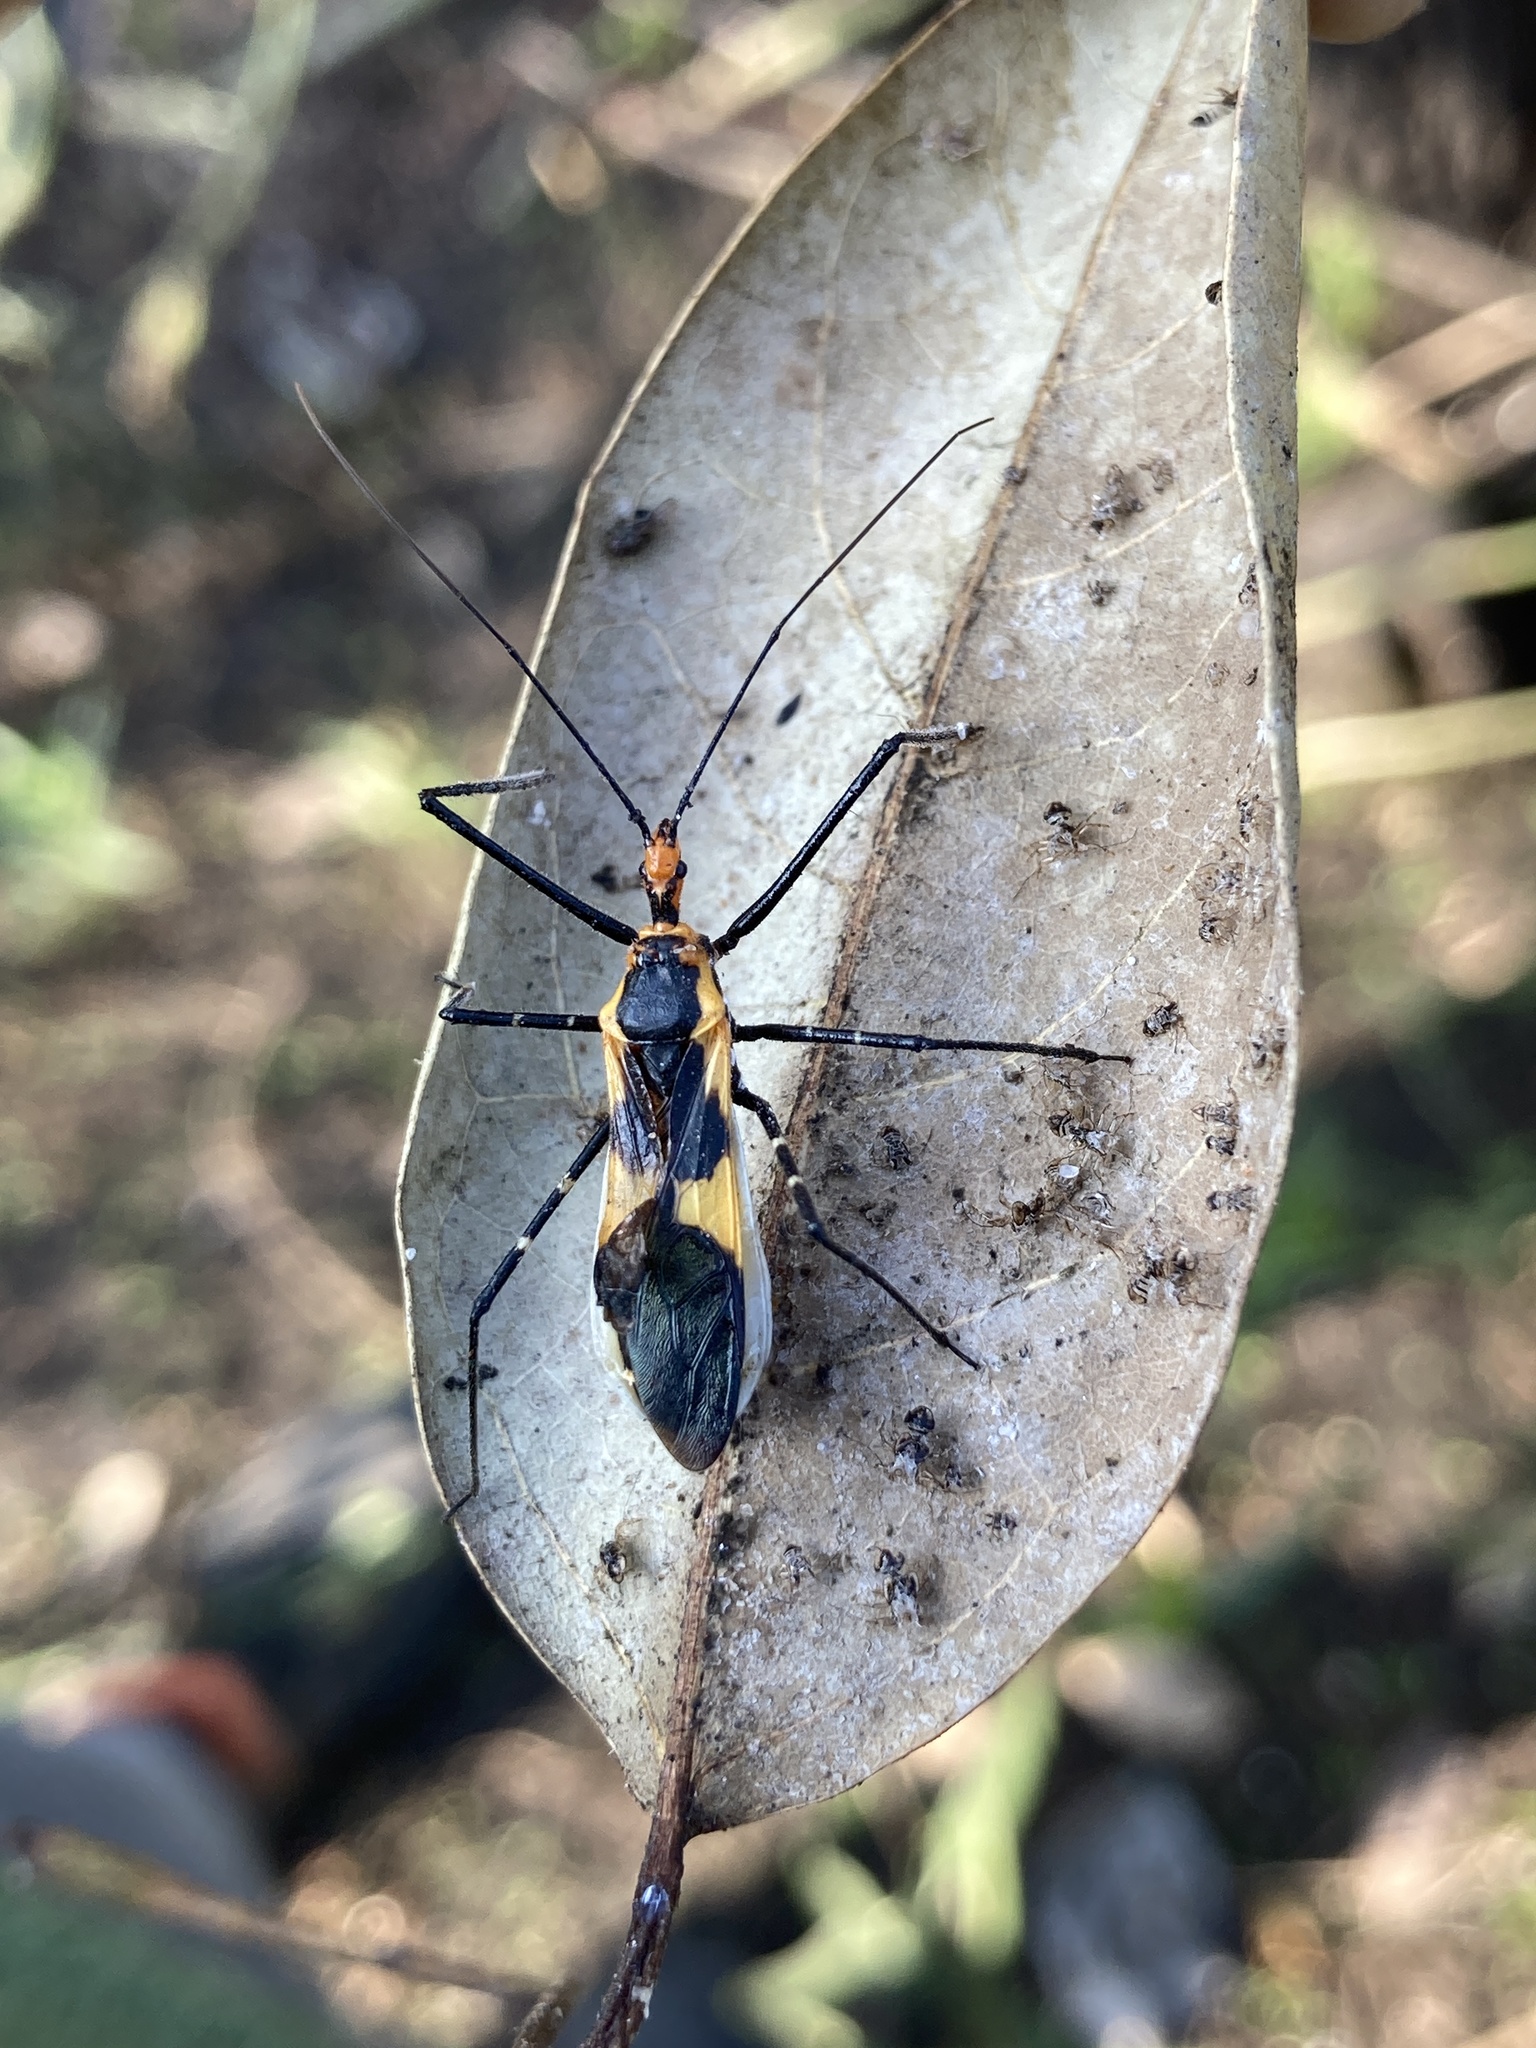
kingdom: Animalia
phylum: Arthropoda
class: Insecta
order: Hemiptera
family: Reduviidae
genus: Zelus
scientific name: Zelus longipes
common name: Milkweed assassin bug
